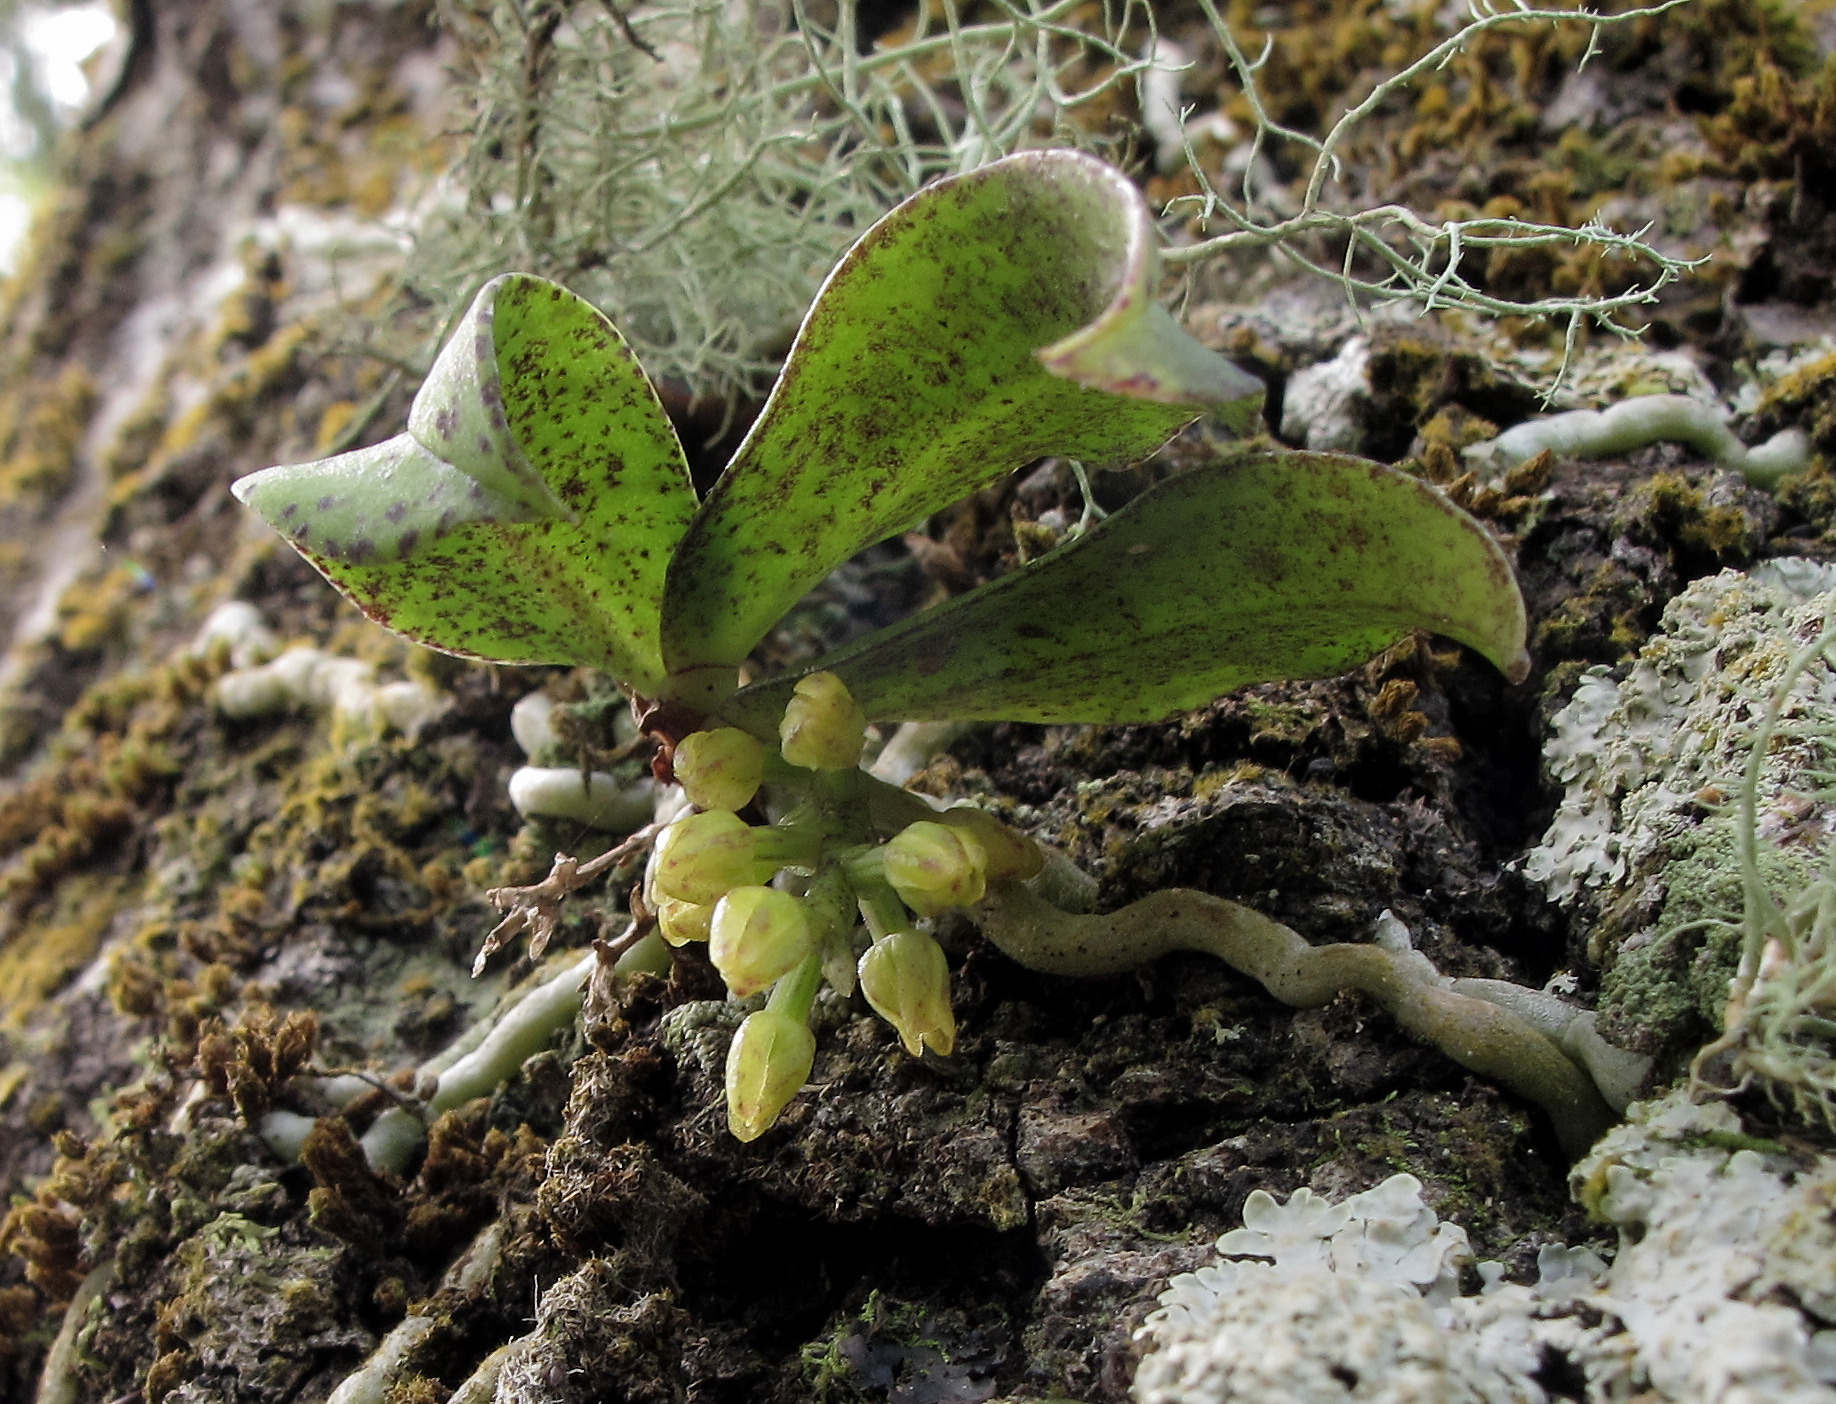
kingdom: Plantae
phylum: Tracheophyta
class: Liliopsida
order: Asparagales
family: Orchidaceae
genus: Drymoanthus
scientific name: Drymoanthus flavus
